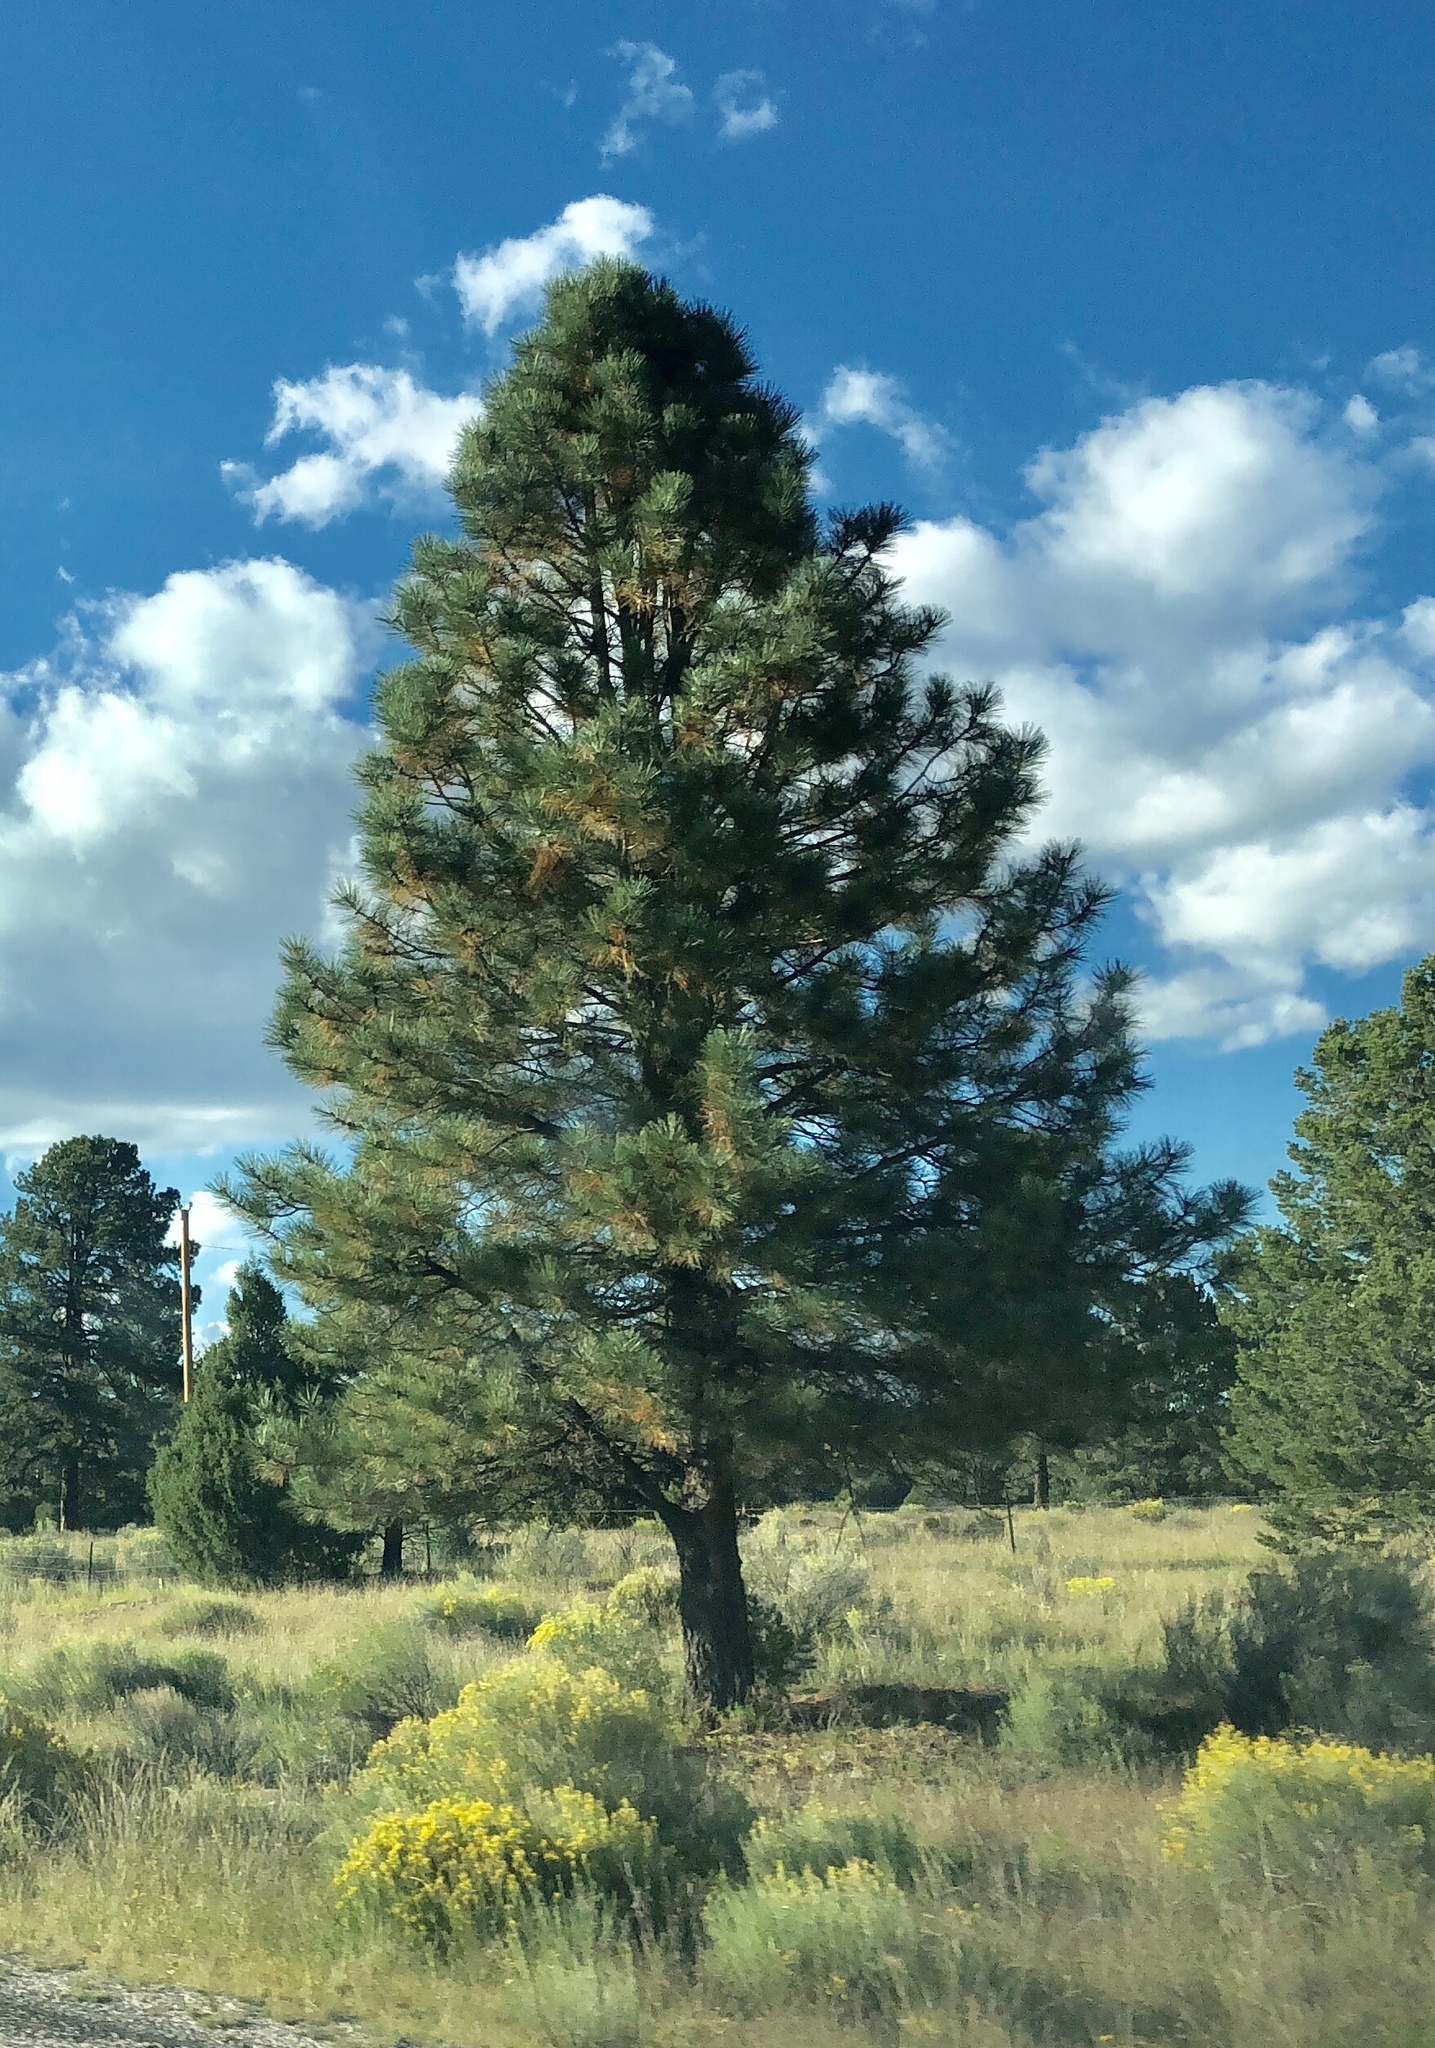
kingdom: Plantae
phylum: Tracheophyta
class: Pinopsida
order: Pinales
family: Pinaceae
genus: Pinus
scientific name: Pinus ponderosa
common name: Western yellow-pine
